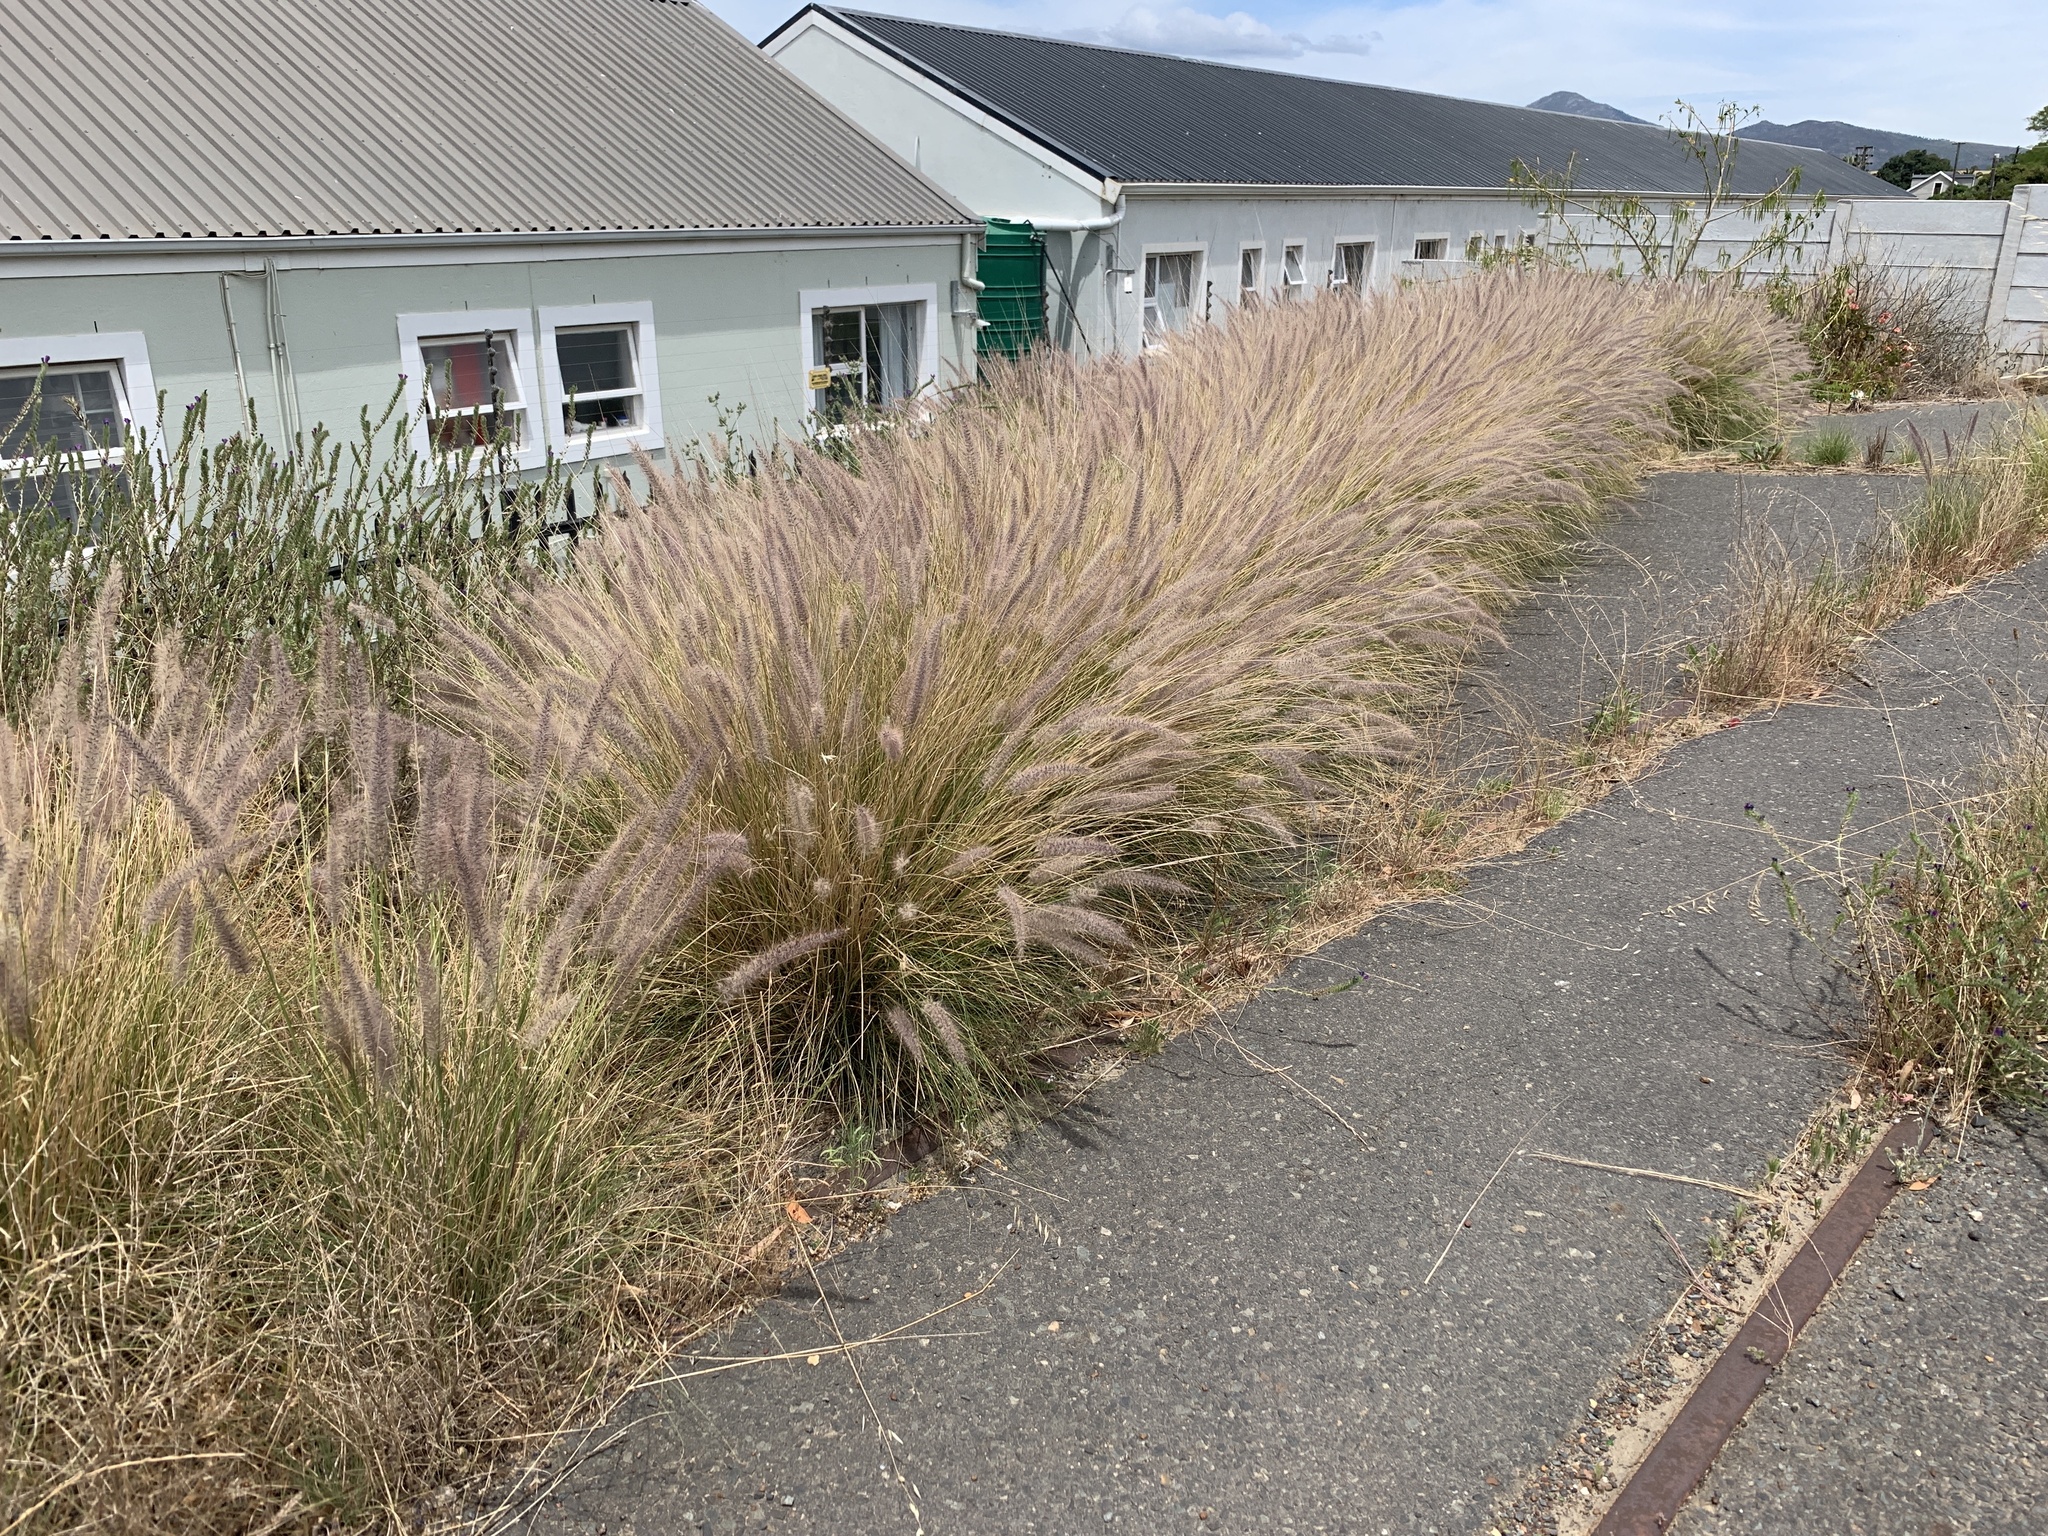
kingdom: Plantae
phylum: Tracheophyta
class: Liliopsida
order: Poales
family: Poaceae
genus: Cenchrus
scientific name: Cenchrus setaceus
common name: Crimson fountaingrass
